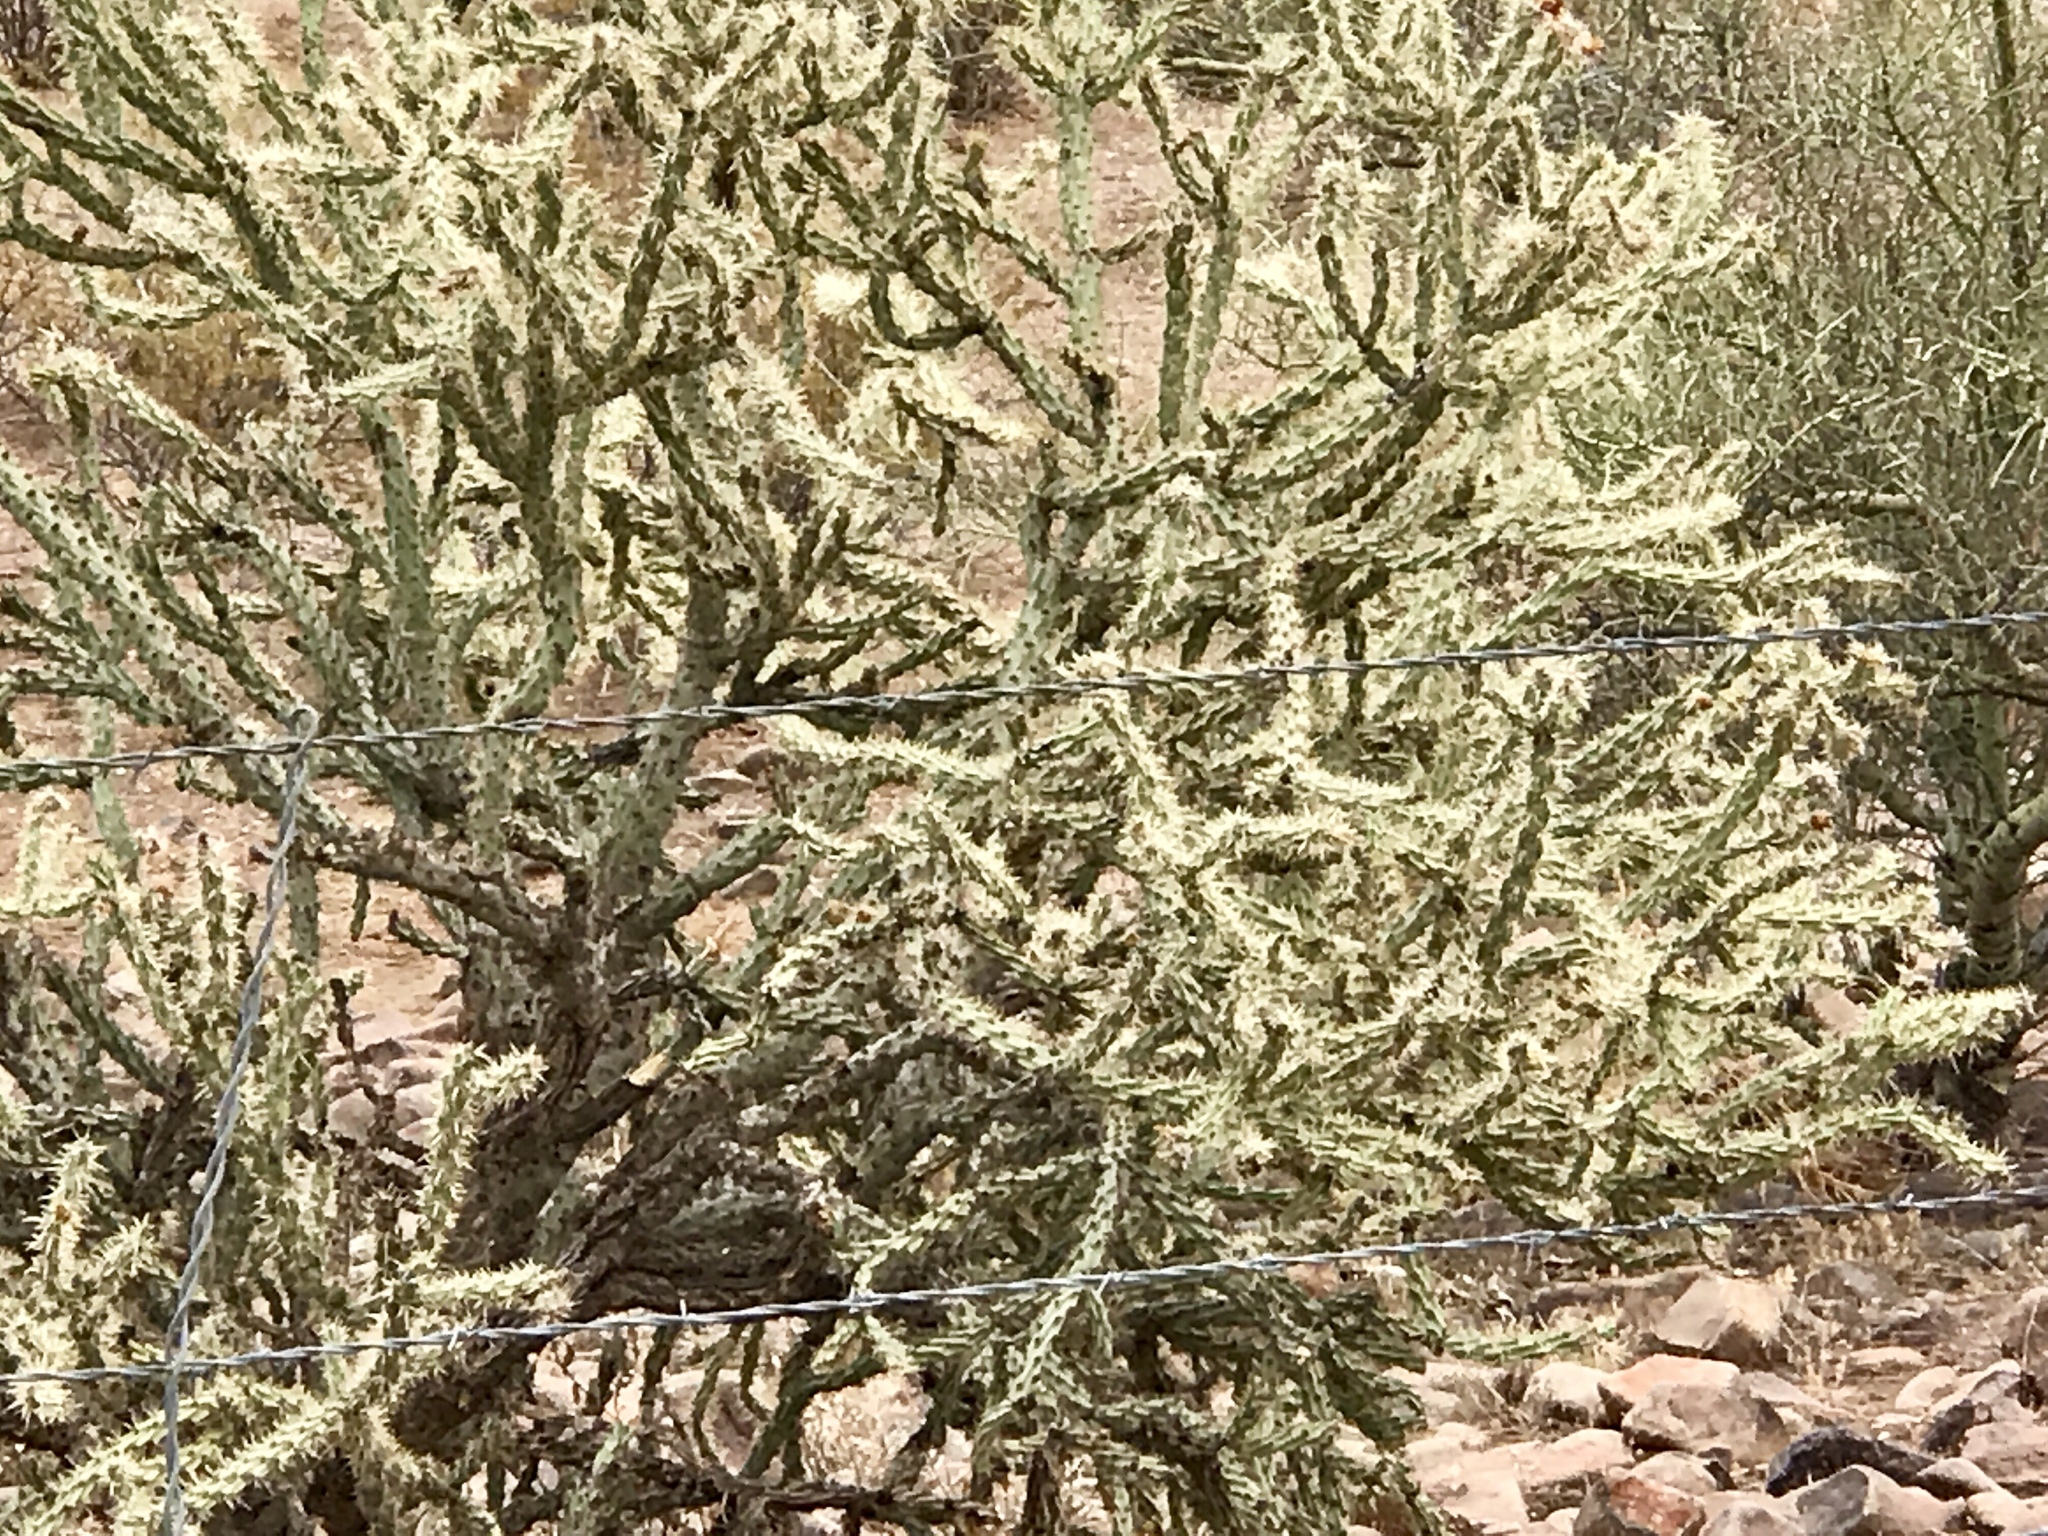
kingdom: Plantae
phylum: Tracheophyta
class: Magnoliopsida
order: Caryophyllales
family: Cactaceae
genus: Cylindropuntia
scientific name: Cylindropuntia acanthocarpa
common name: Buckhorn cholla
